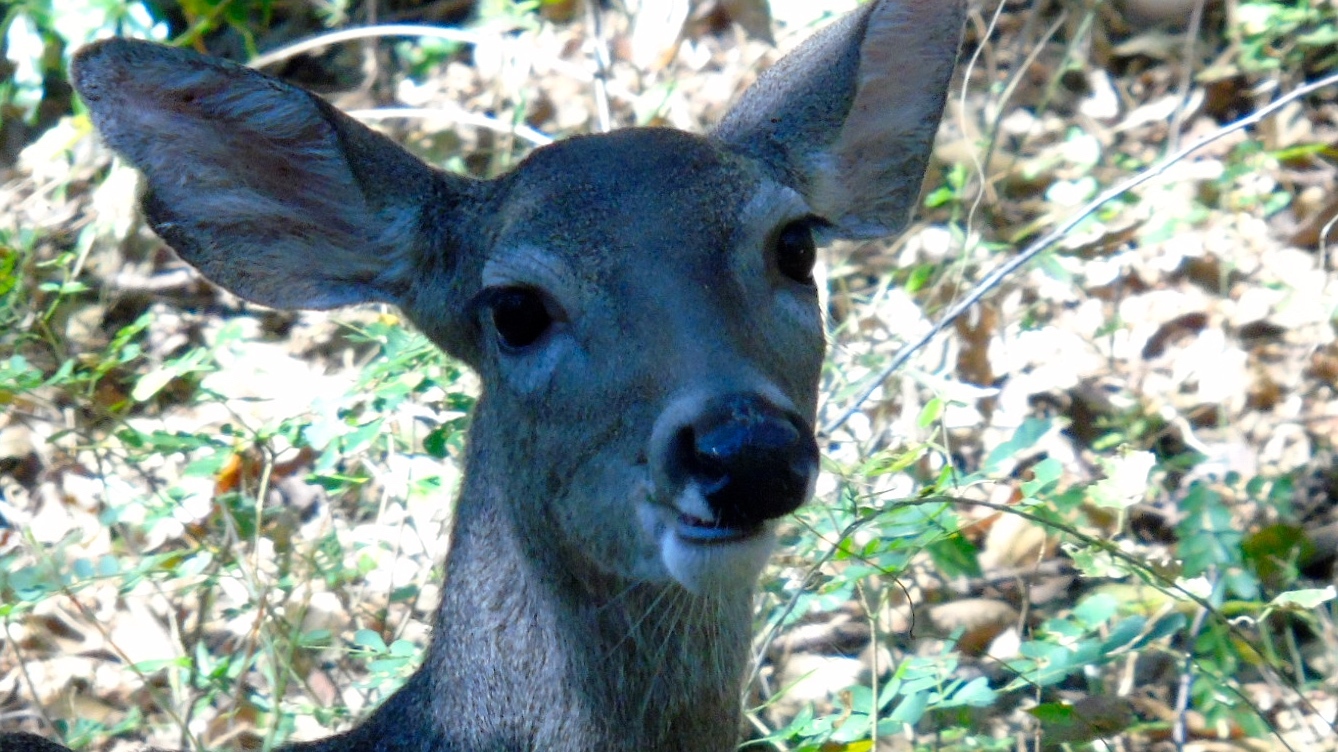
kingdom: Animalia
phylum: Chordata
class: Mammalia
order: Artiodactyla
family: Cervidae
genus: Odocoileus
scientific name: Odocoileus virginianus
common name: White-tailed deer
